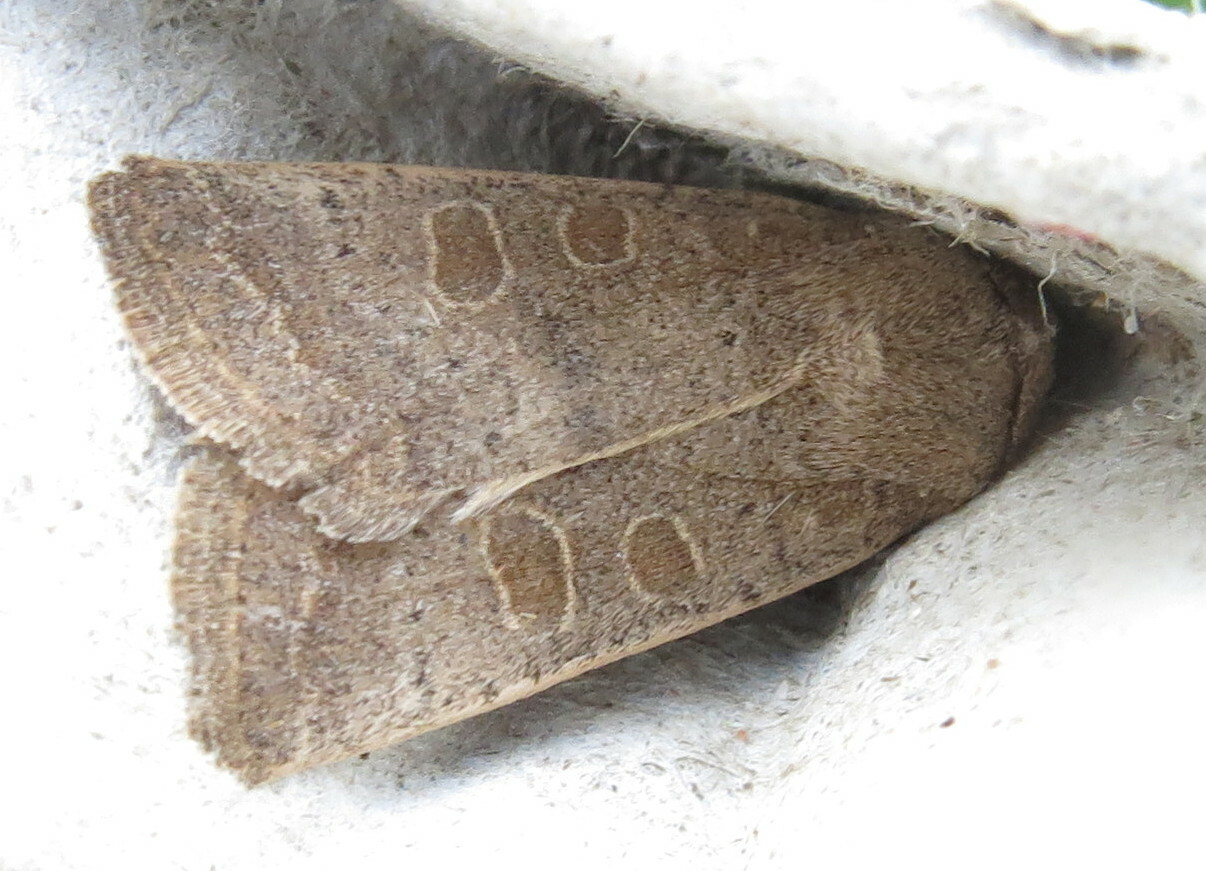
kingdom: Animalia
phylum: Arthropoda
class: Insecta
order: Lepidoptera
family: Noctuidae
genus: Hoplodrina
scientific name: Hoplodrina ambigua
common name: Vine's rustic
